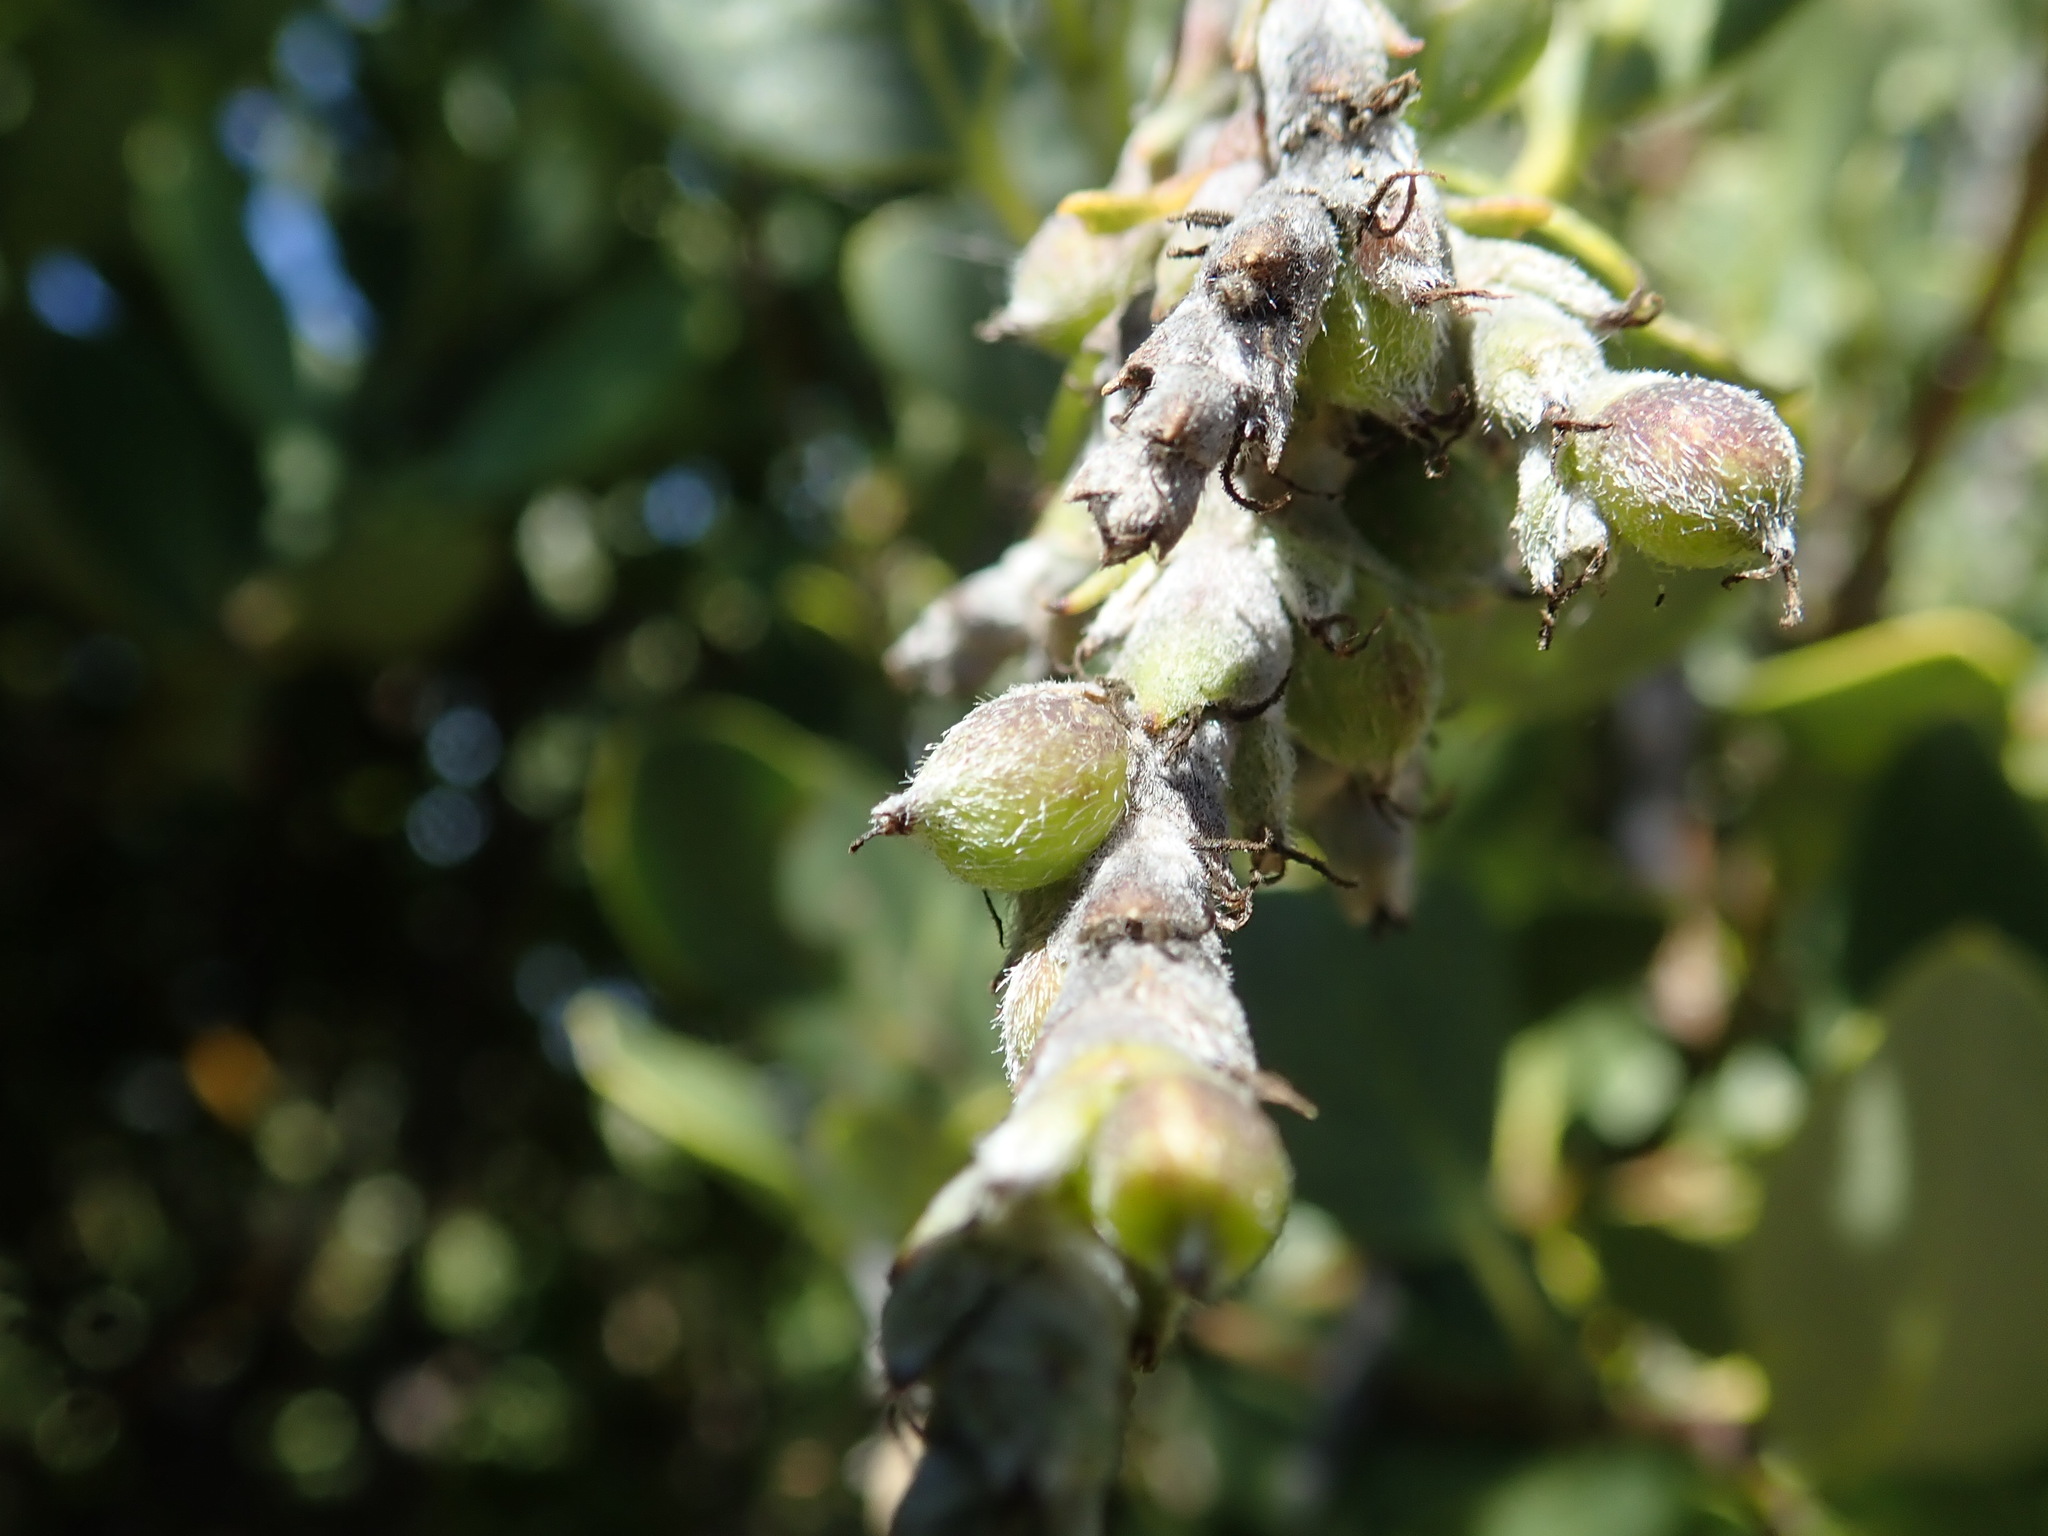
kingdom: Plantae
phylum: Tracheophyta
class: Magnoliopsida
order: Garryales
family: Garryaceae
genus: Garrya
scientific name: Garrya flavescens
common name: Ashy silk-tassel
